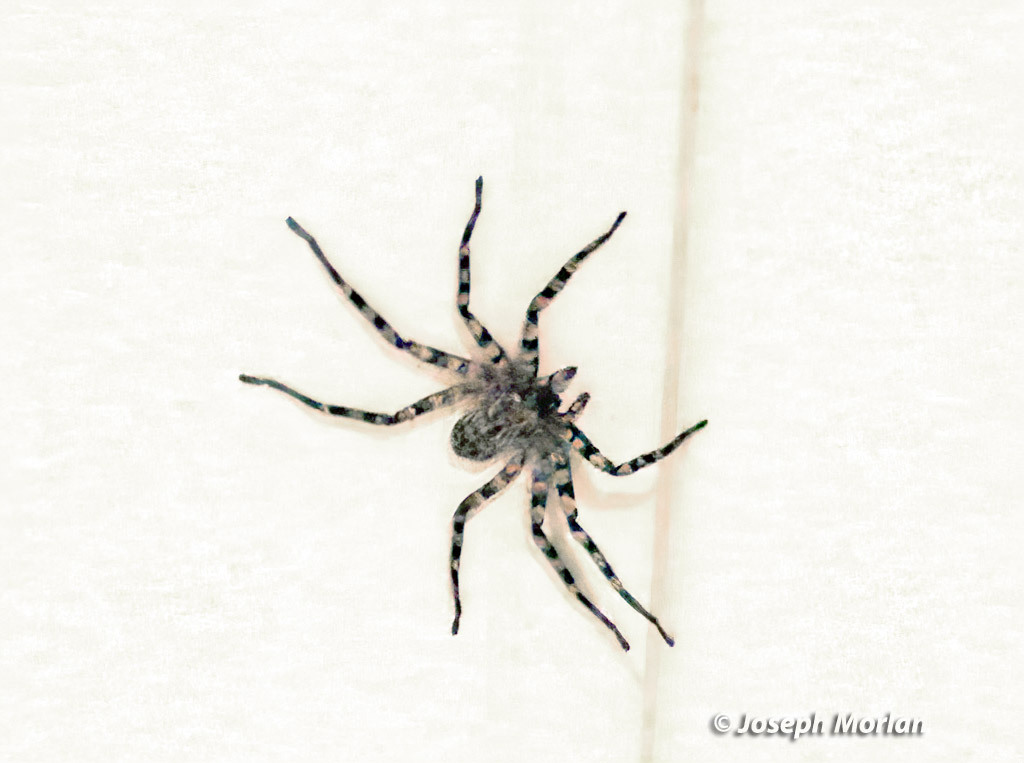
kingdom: Animalia
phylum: Arthropoda
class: Arachnida
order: Araneae
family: Selenopidae
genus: Selenops
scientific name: Selenops debilis
